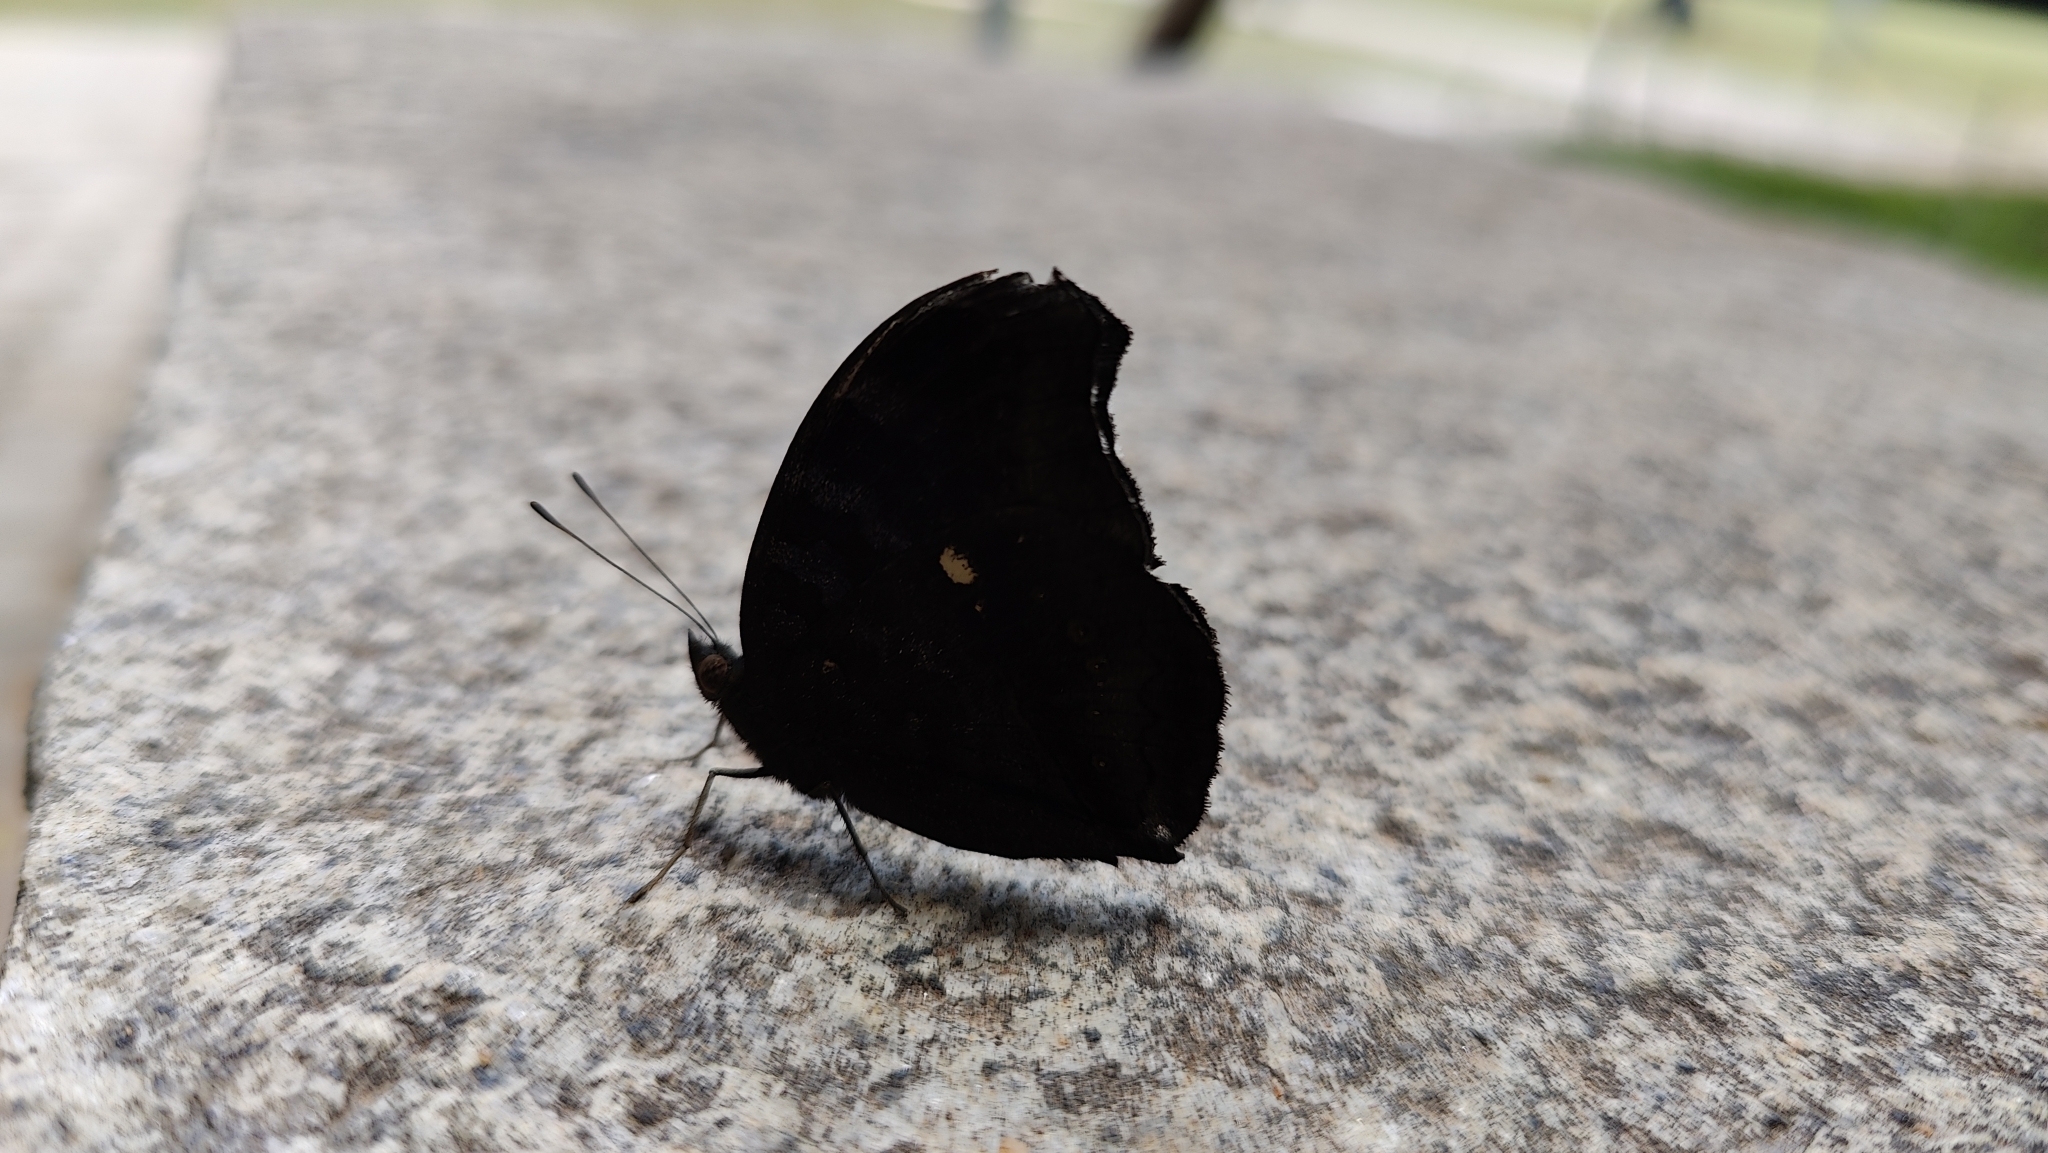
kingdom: Animalia
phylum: Arthropoda
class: Insecta
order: Lepidoptera
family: Nymphalidae
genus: Junonia
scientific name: Junonia iphita
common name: Chocolate pansy
